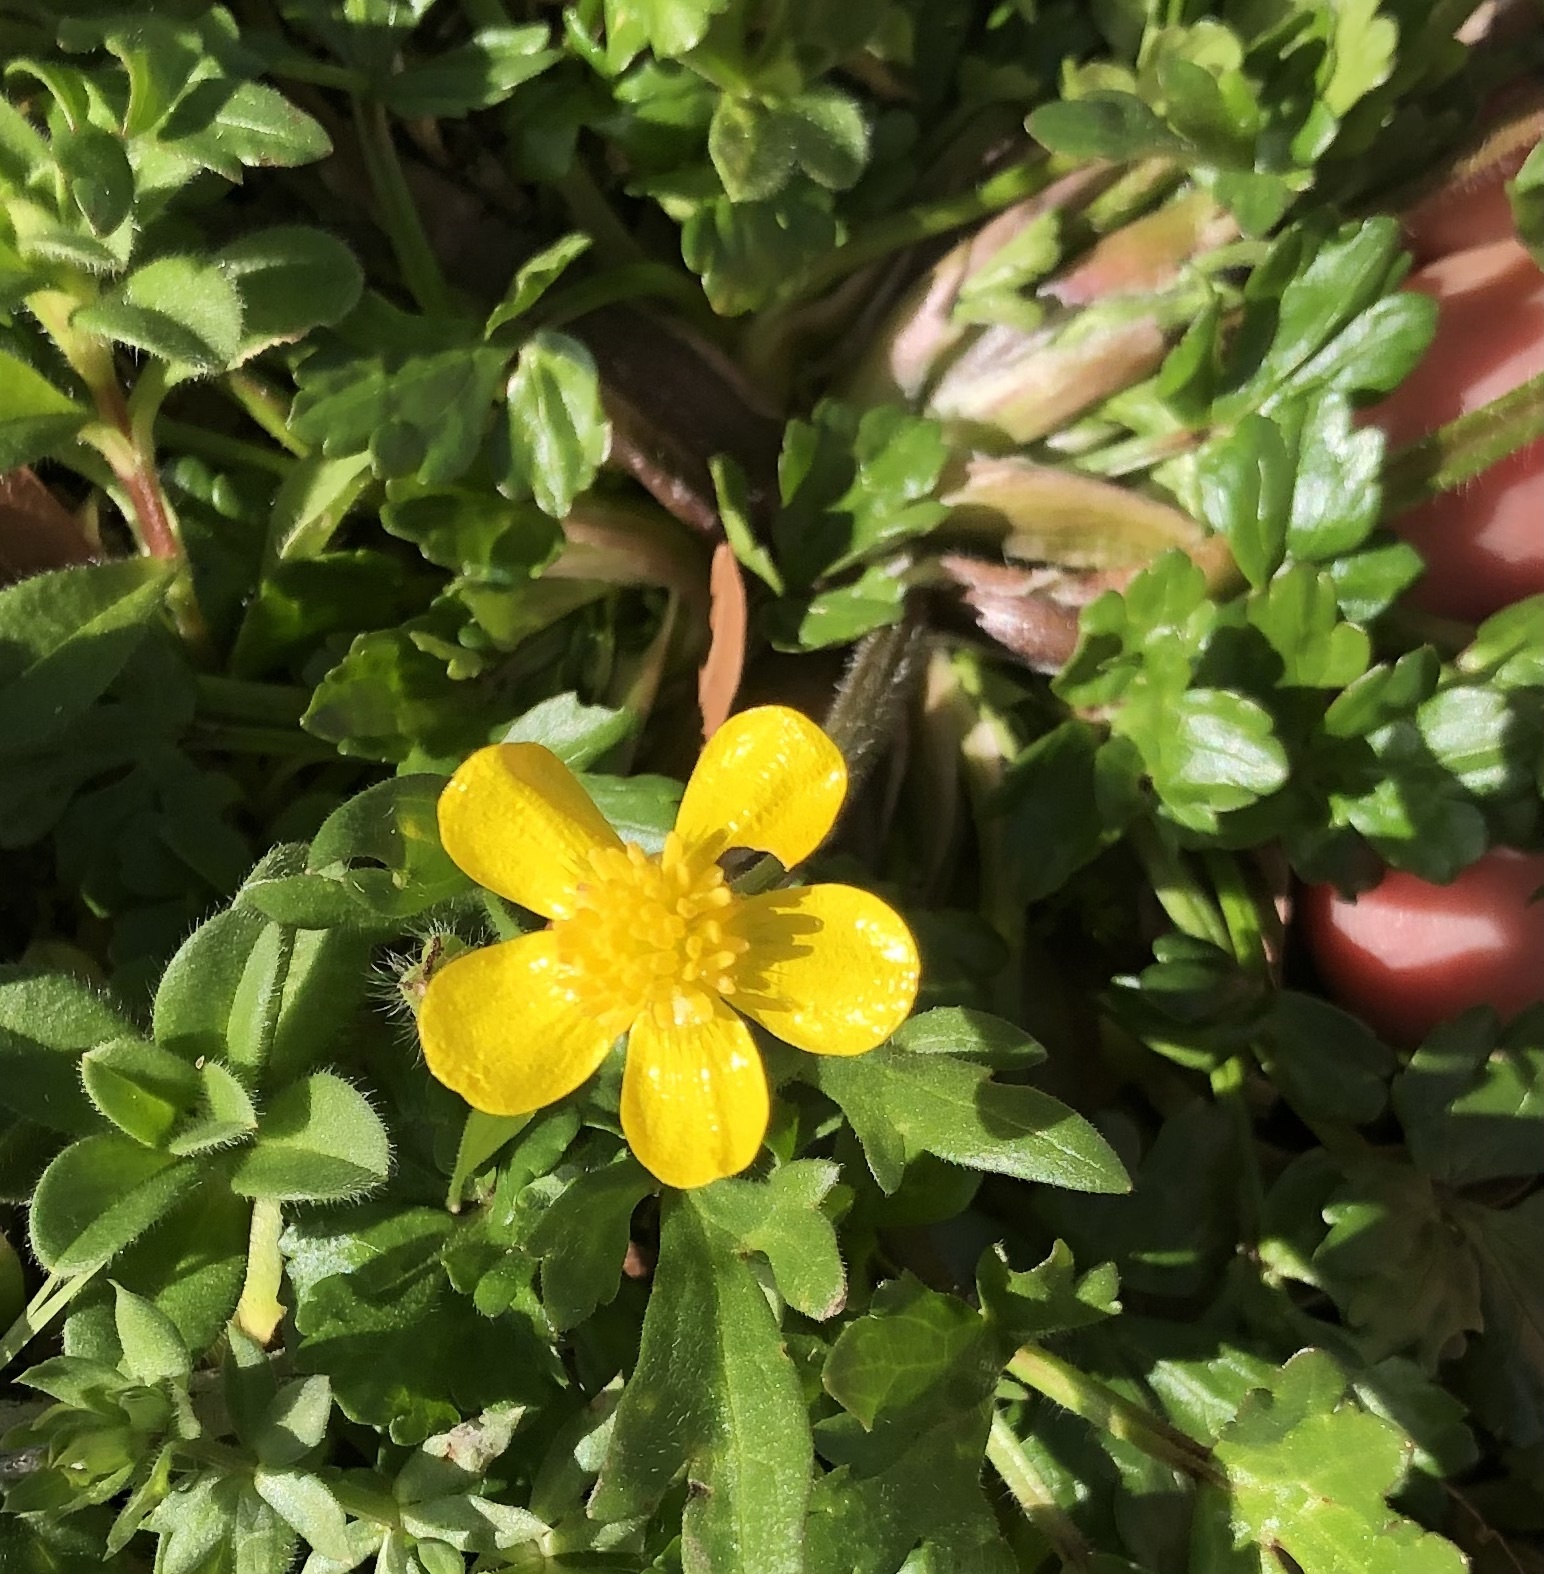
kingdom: Plantae
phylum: Tracheophyta
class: Magnoliopsida
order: Ranunculales
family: Ranunculaceae
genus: Ranunculus
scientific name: Ranunculus sardous
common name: Hairy buttercup
